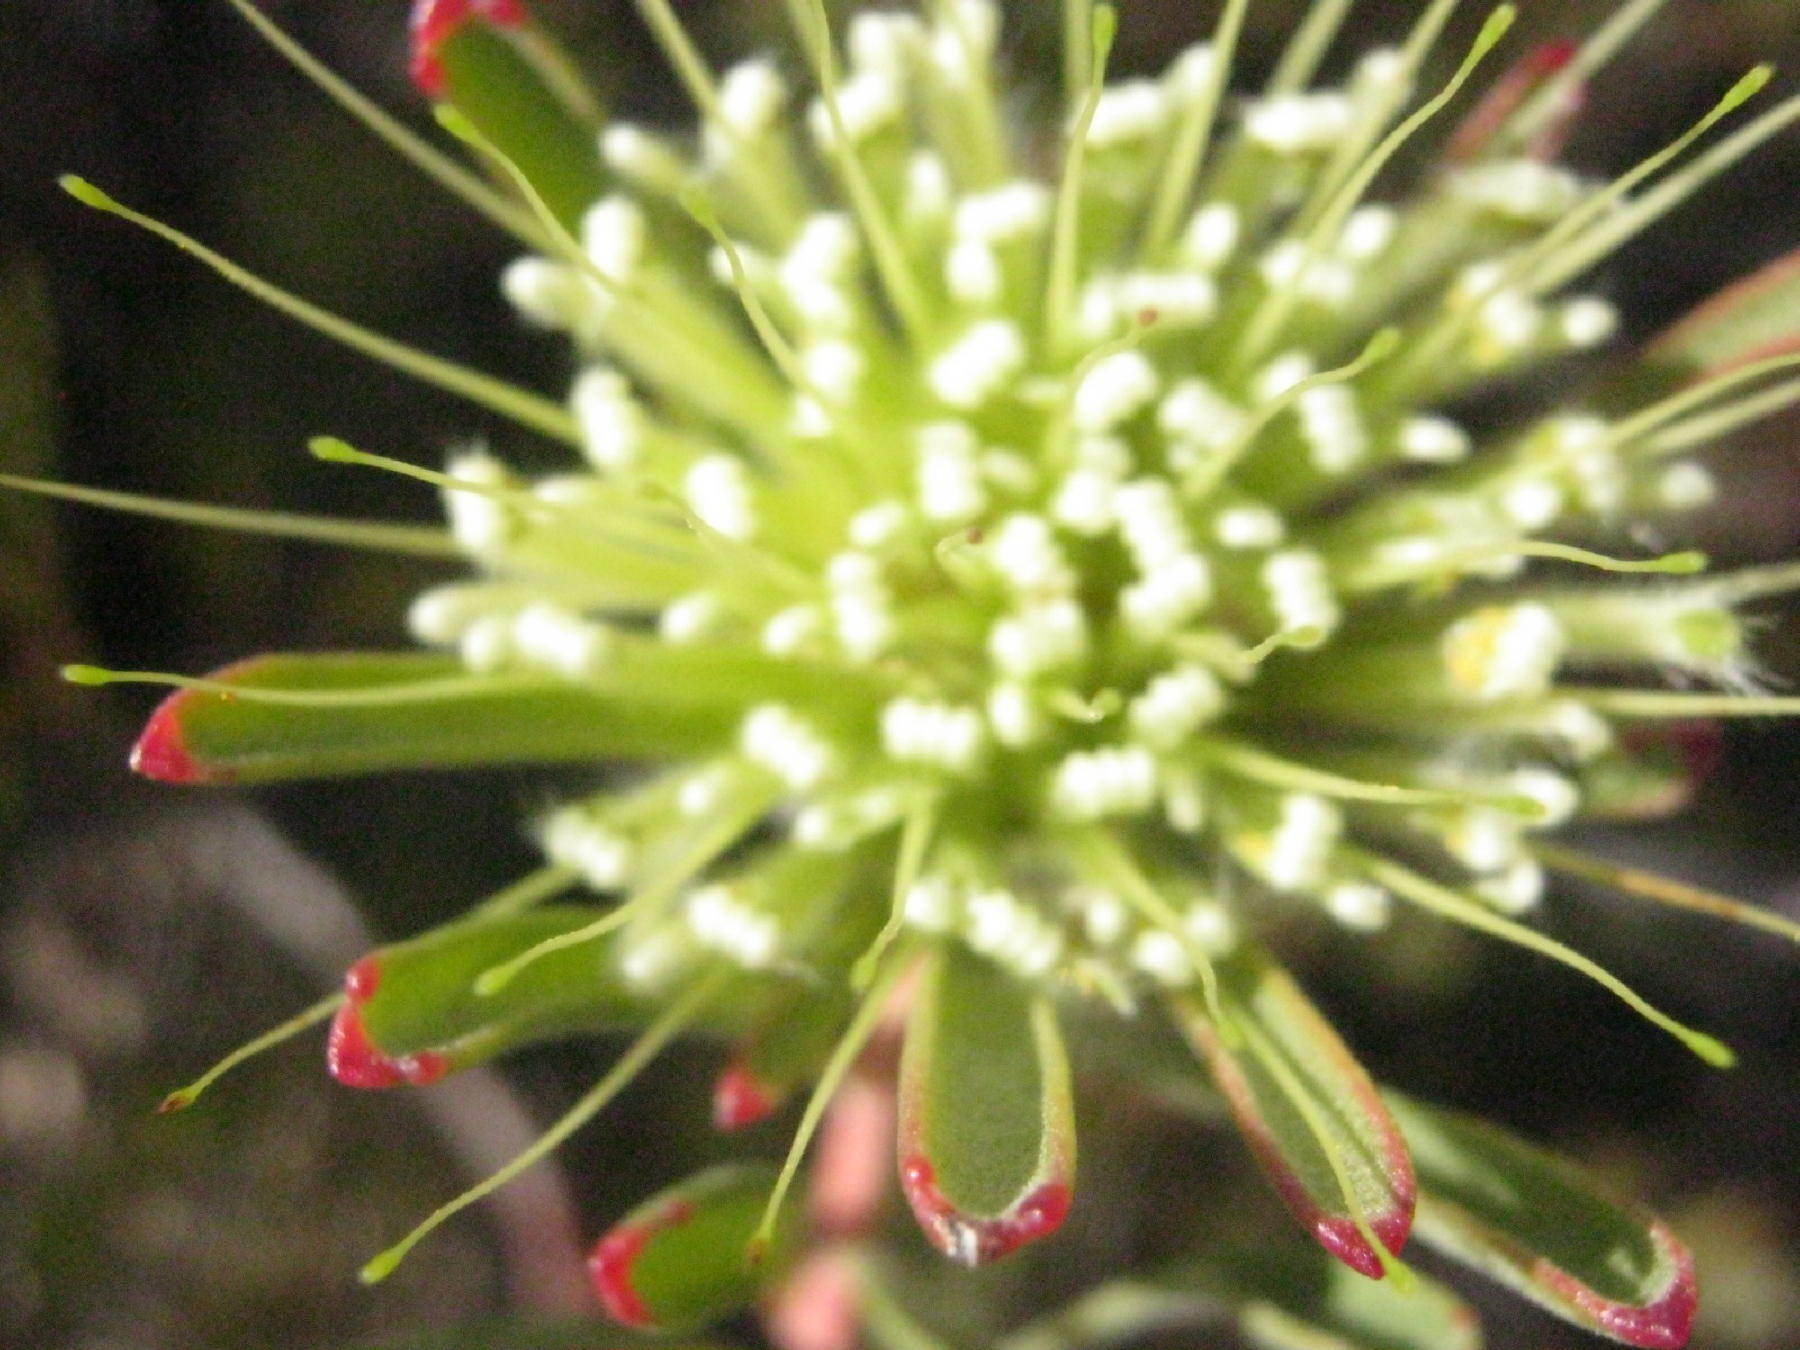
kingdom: Plantae
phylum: Tracheophyta
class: Magnoliopsida
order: Proteales
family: Proteaceae
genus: Leucospermum
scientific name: Leucospermum saxatile
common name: Karoo pincushion
